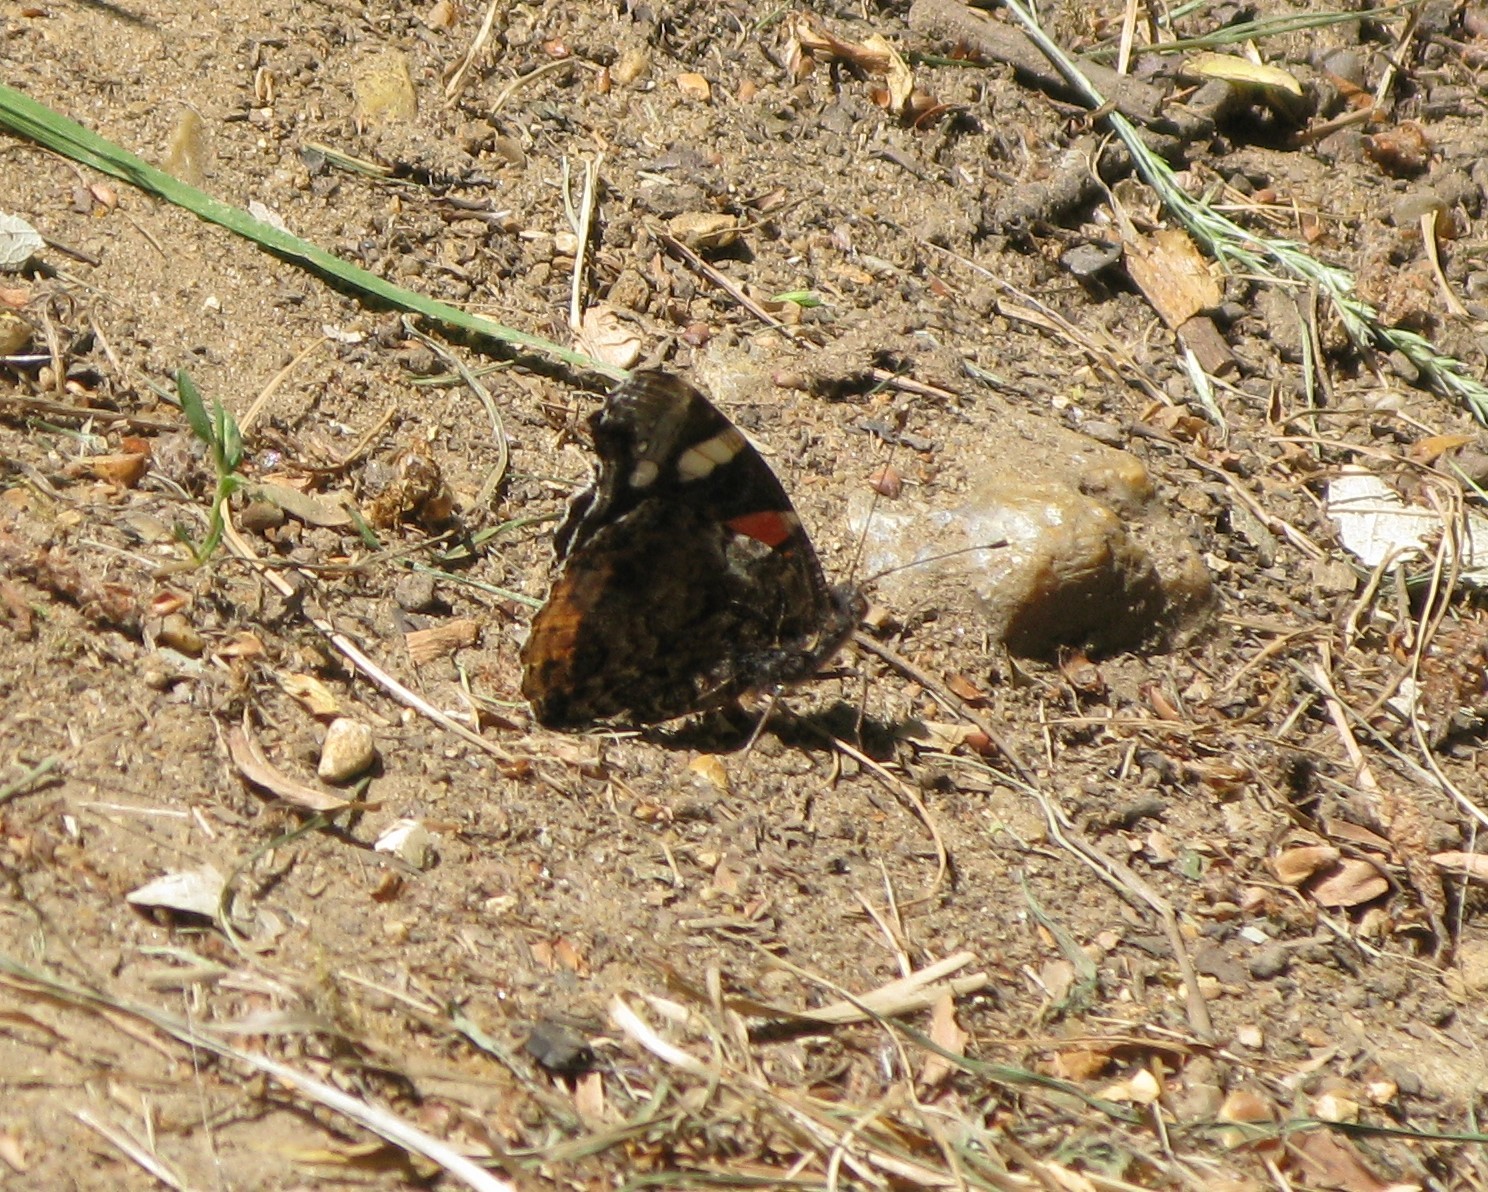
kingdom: Animalia
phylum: Arthropoda
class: Insecta
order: Lepidoptera
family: Nymphalidae
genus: Vanessa
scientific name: Vanessa atalanta
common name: Red admiral
